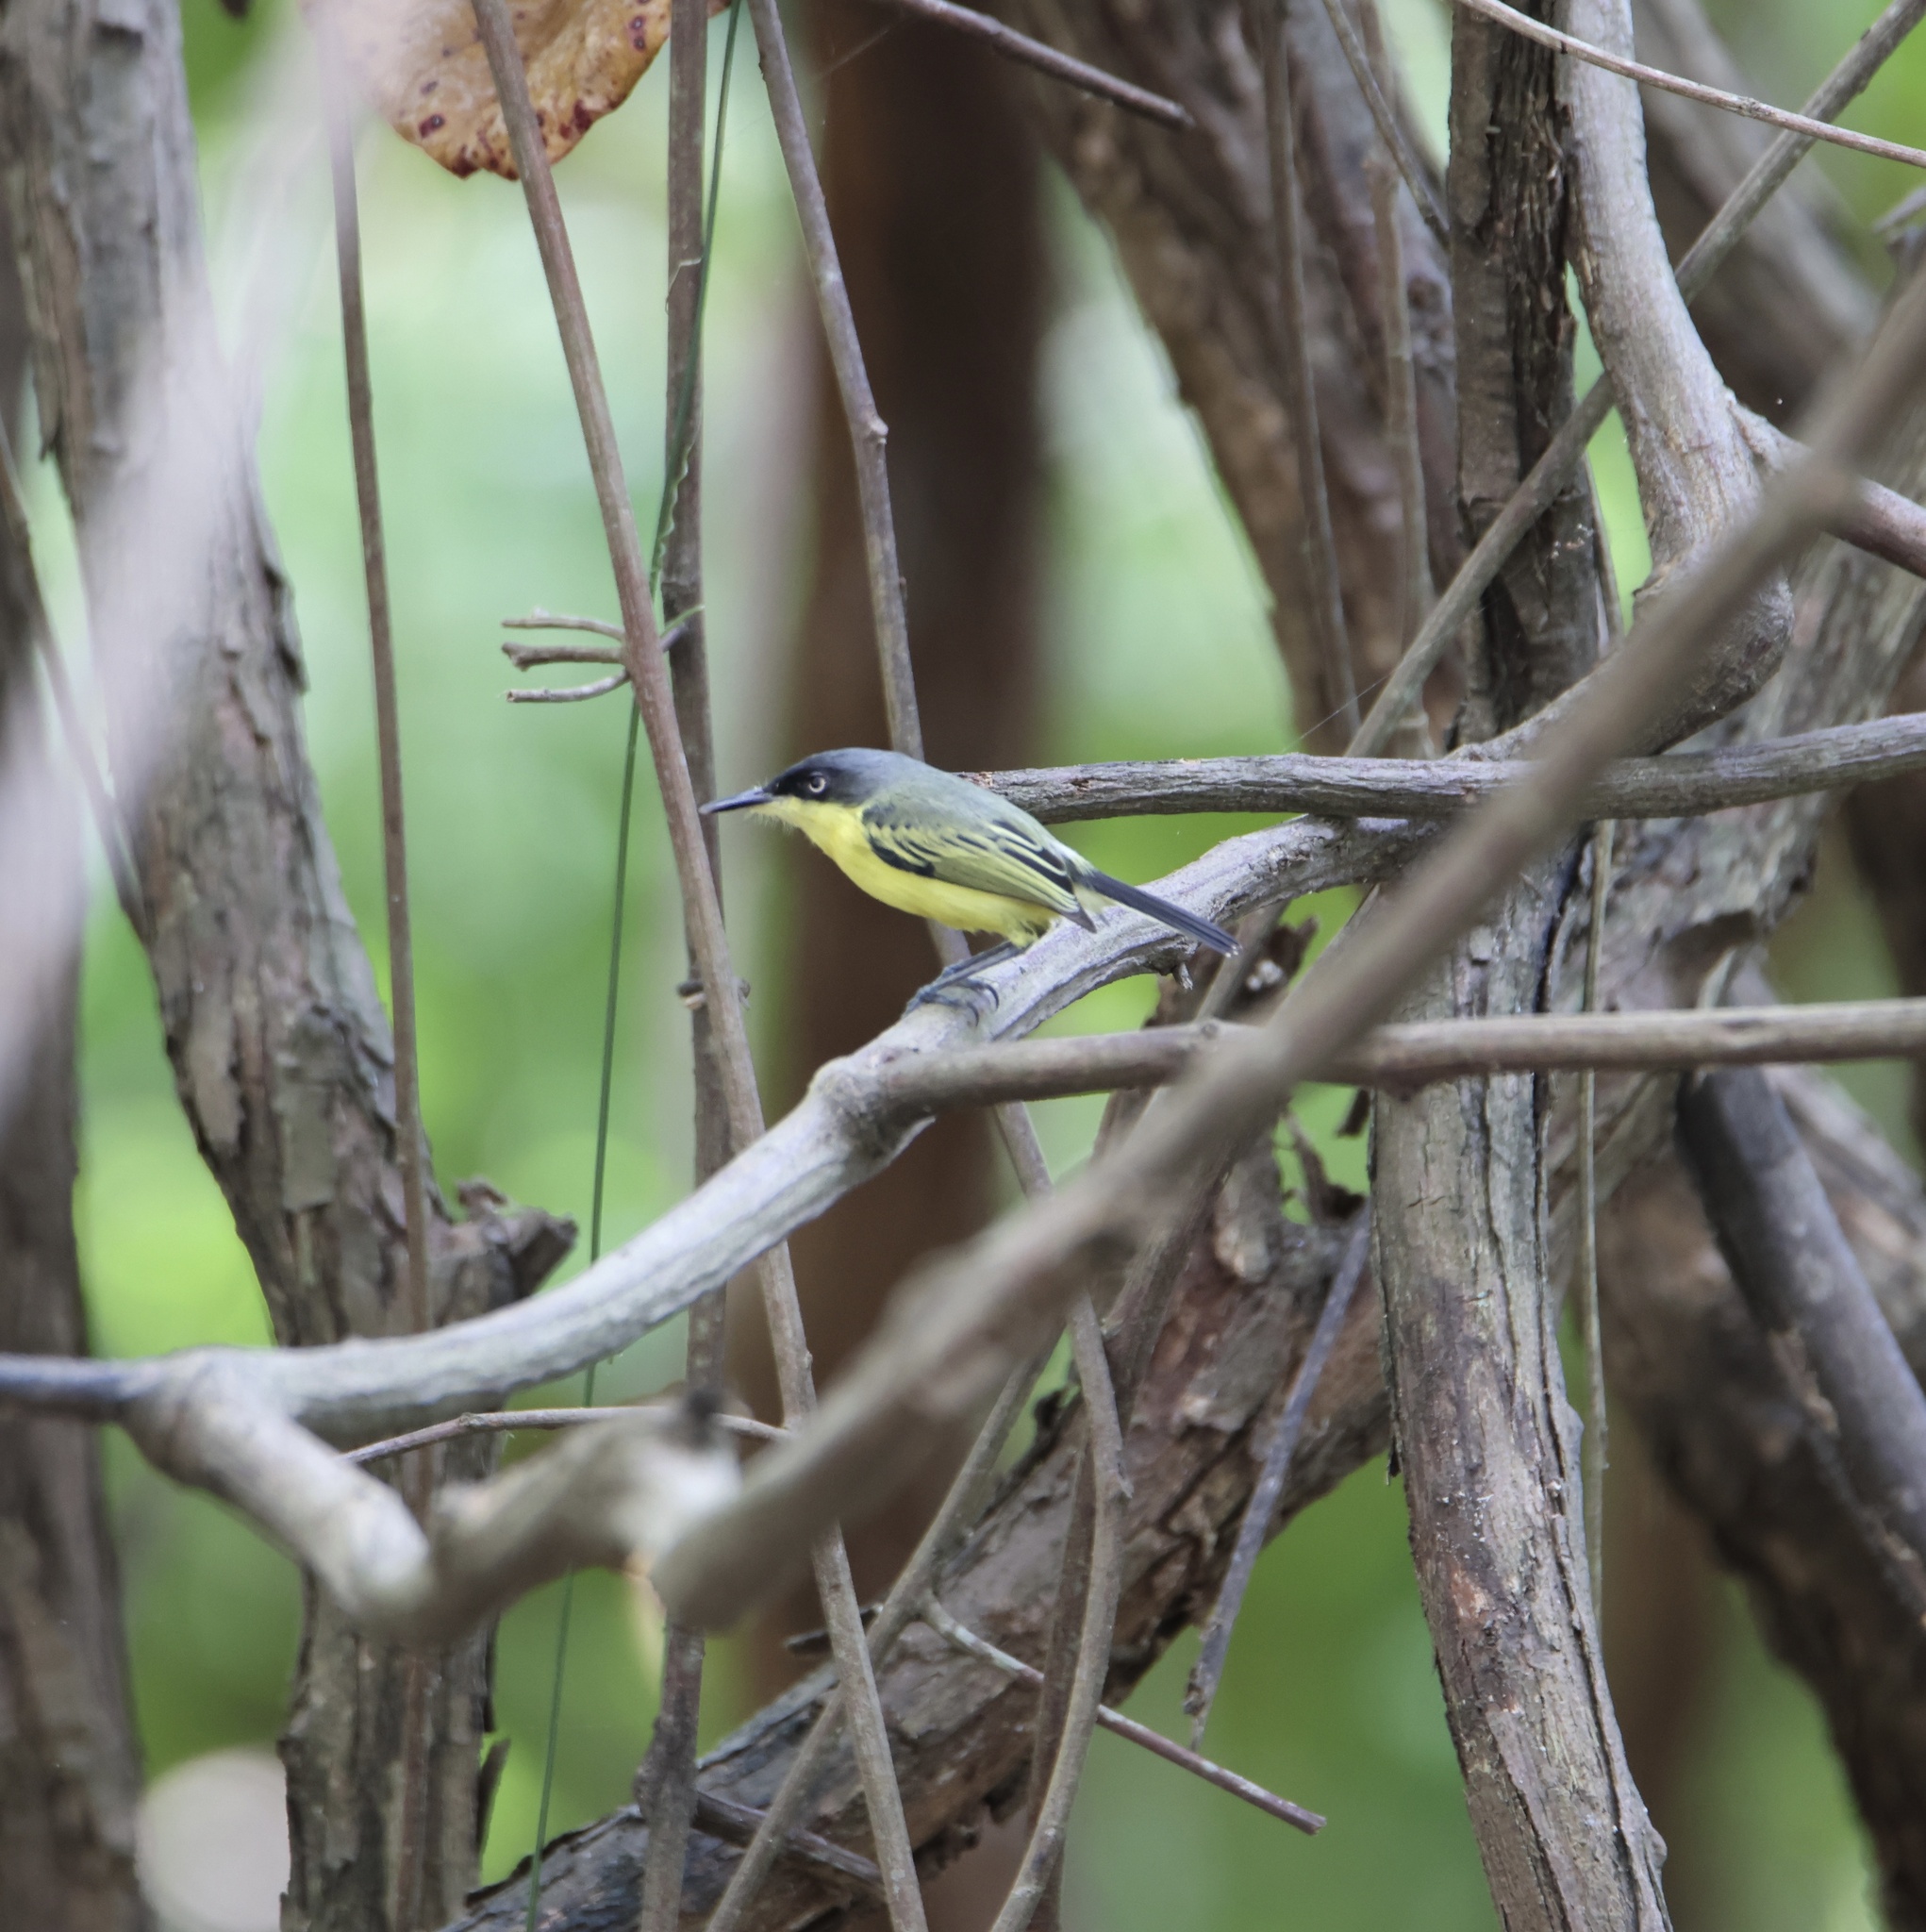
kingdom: Animalia
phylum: Chordata
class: Aves
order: Passeriformes
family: Tyrannidae
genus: Todirostrum
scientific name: Todirostrum cinereum
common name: Common tody-flycatcher
